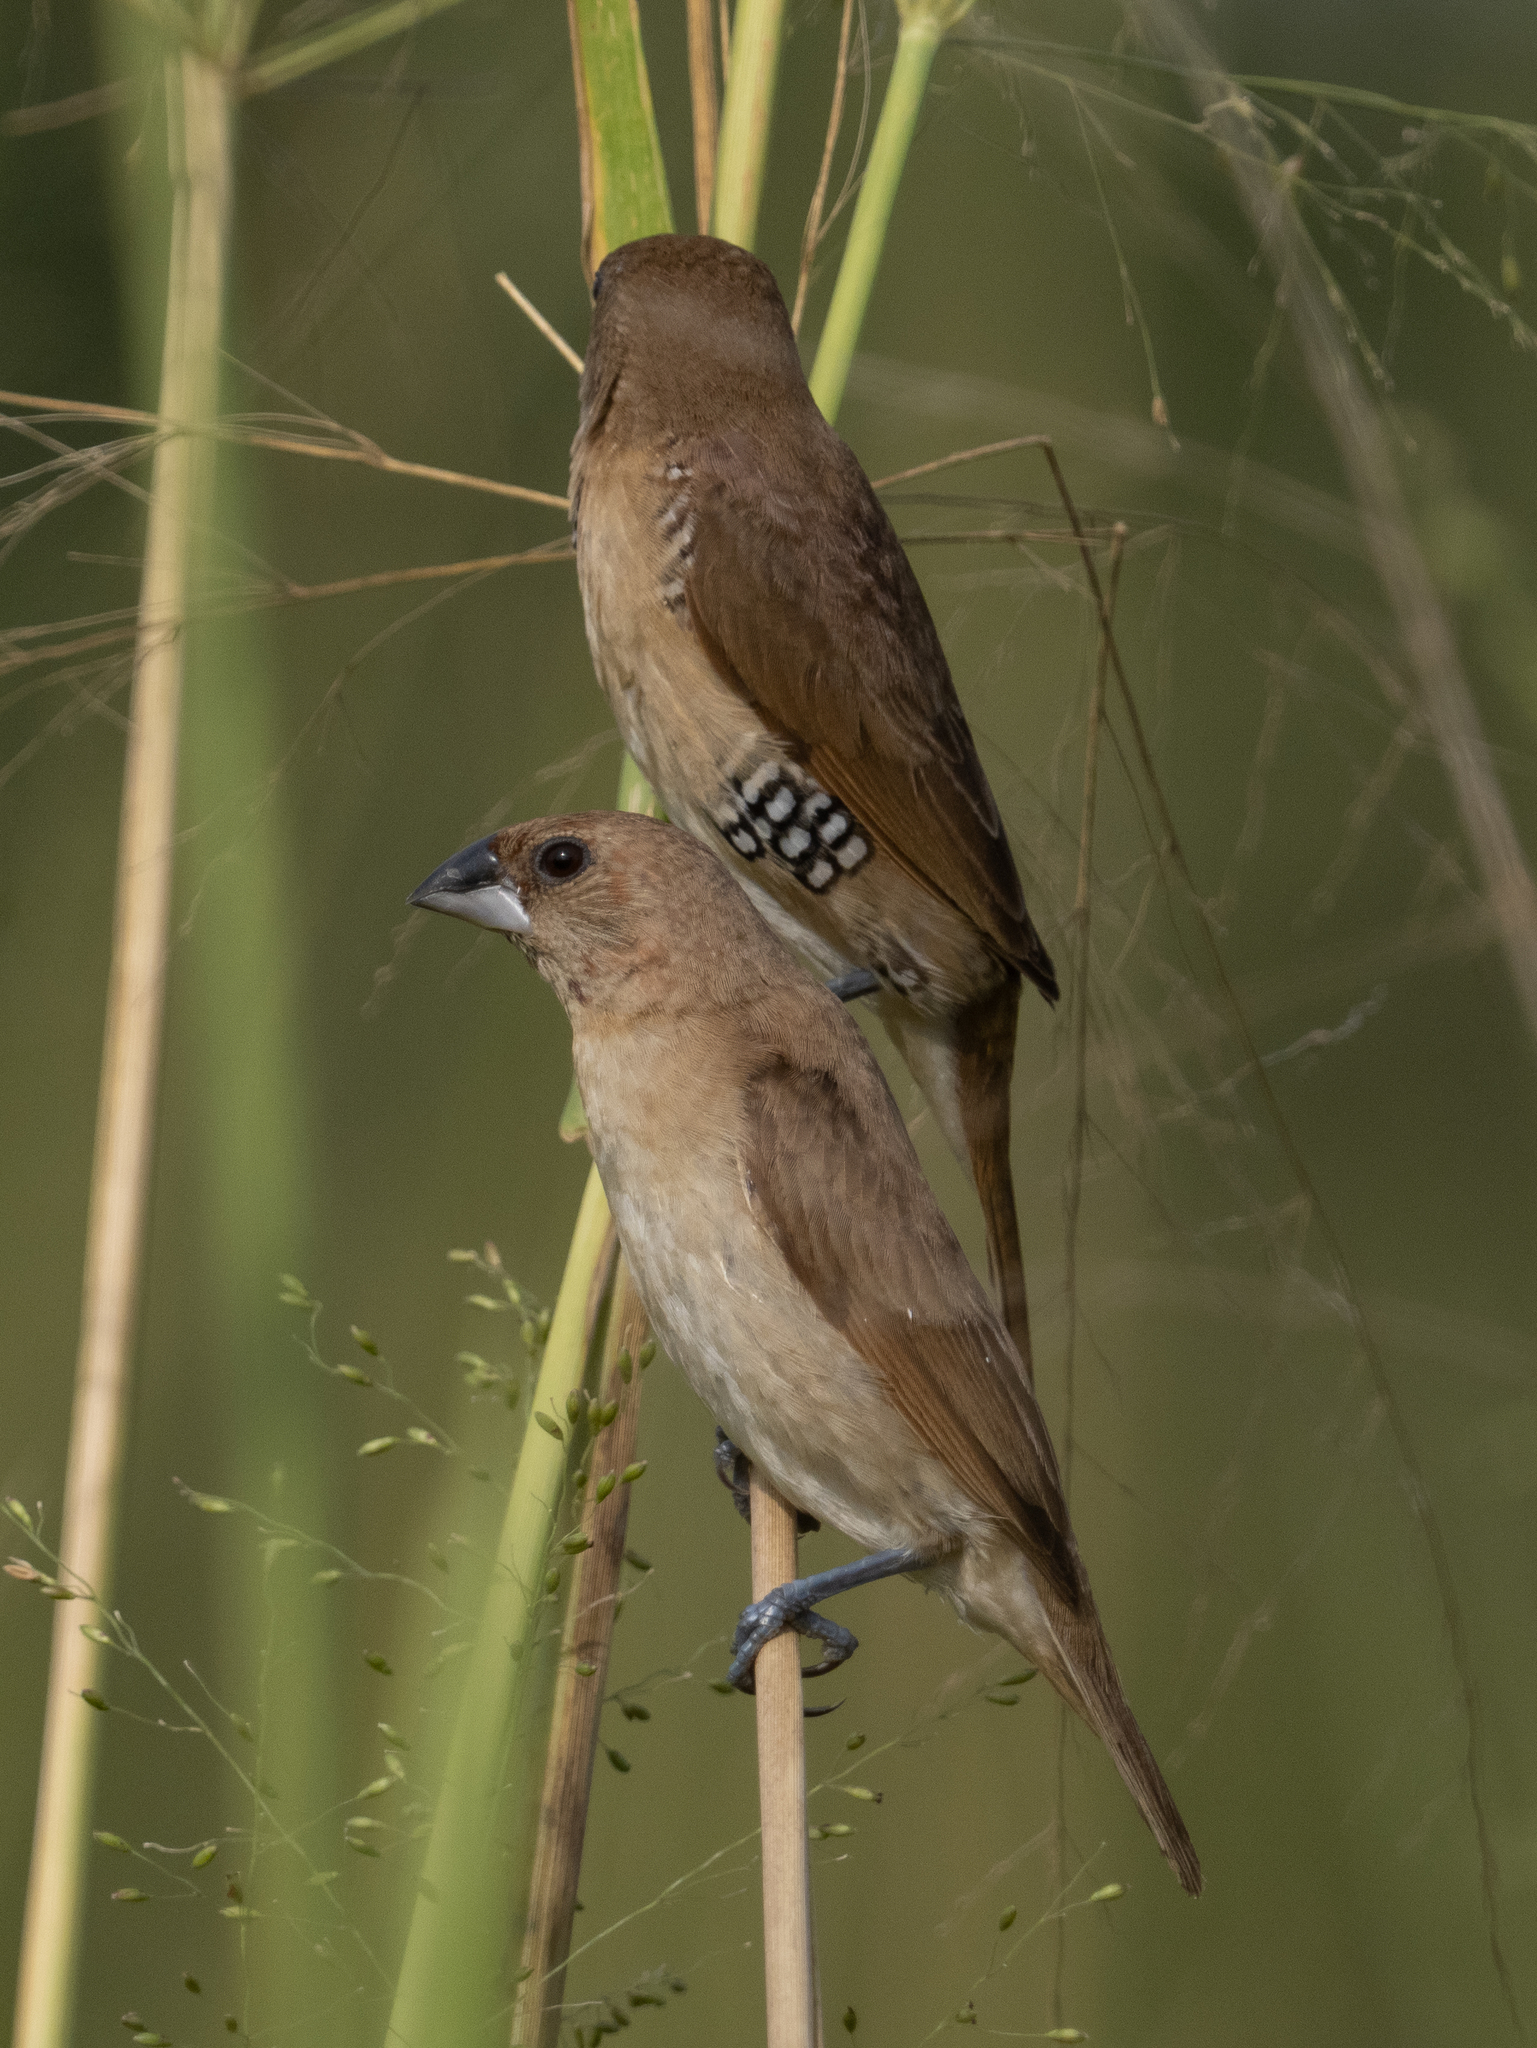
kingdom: Animalia
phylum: Chordata
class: Aves
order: Passeriformes
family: Estrildidae
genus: Lonchura
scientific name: Lonchura punctulata
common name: Scaly-breasted munia
